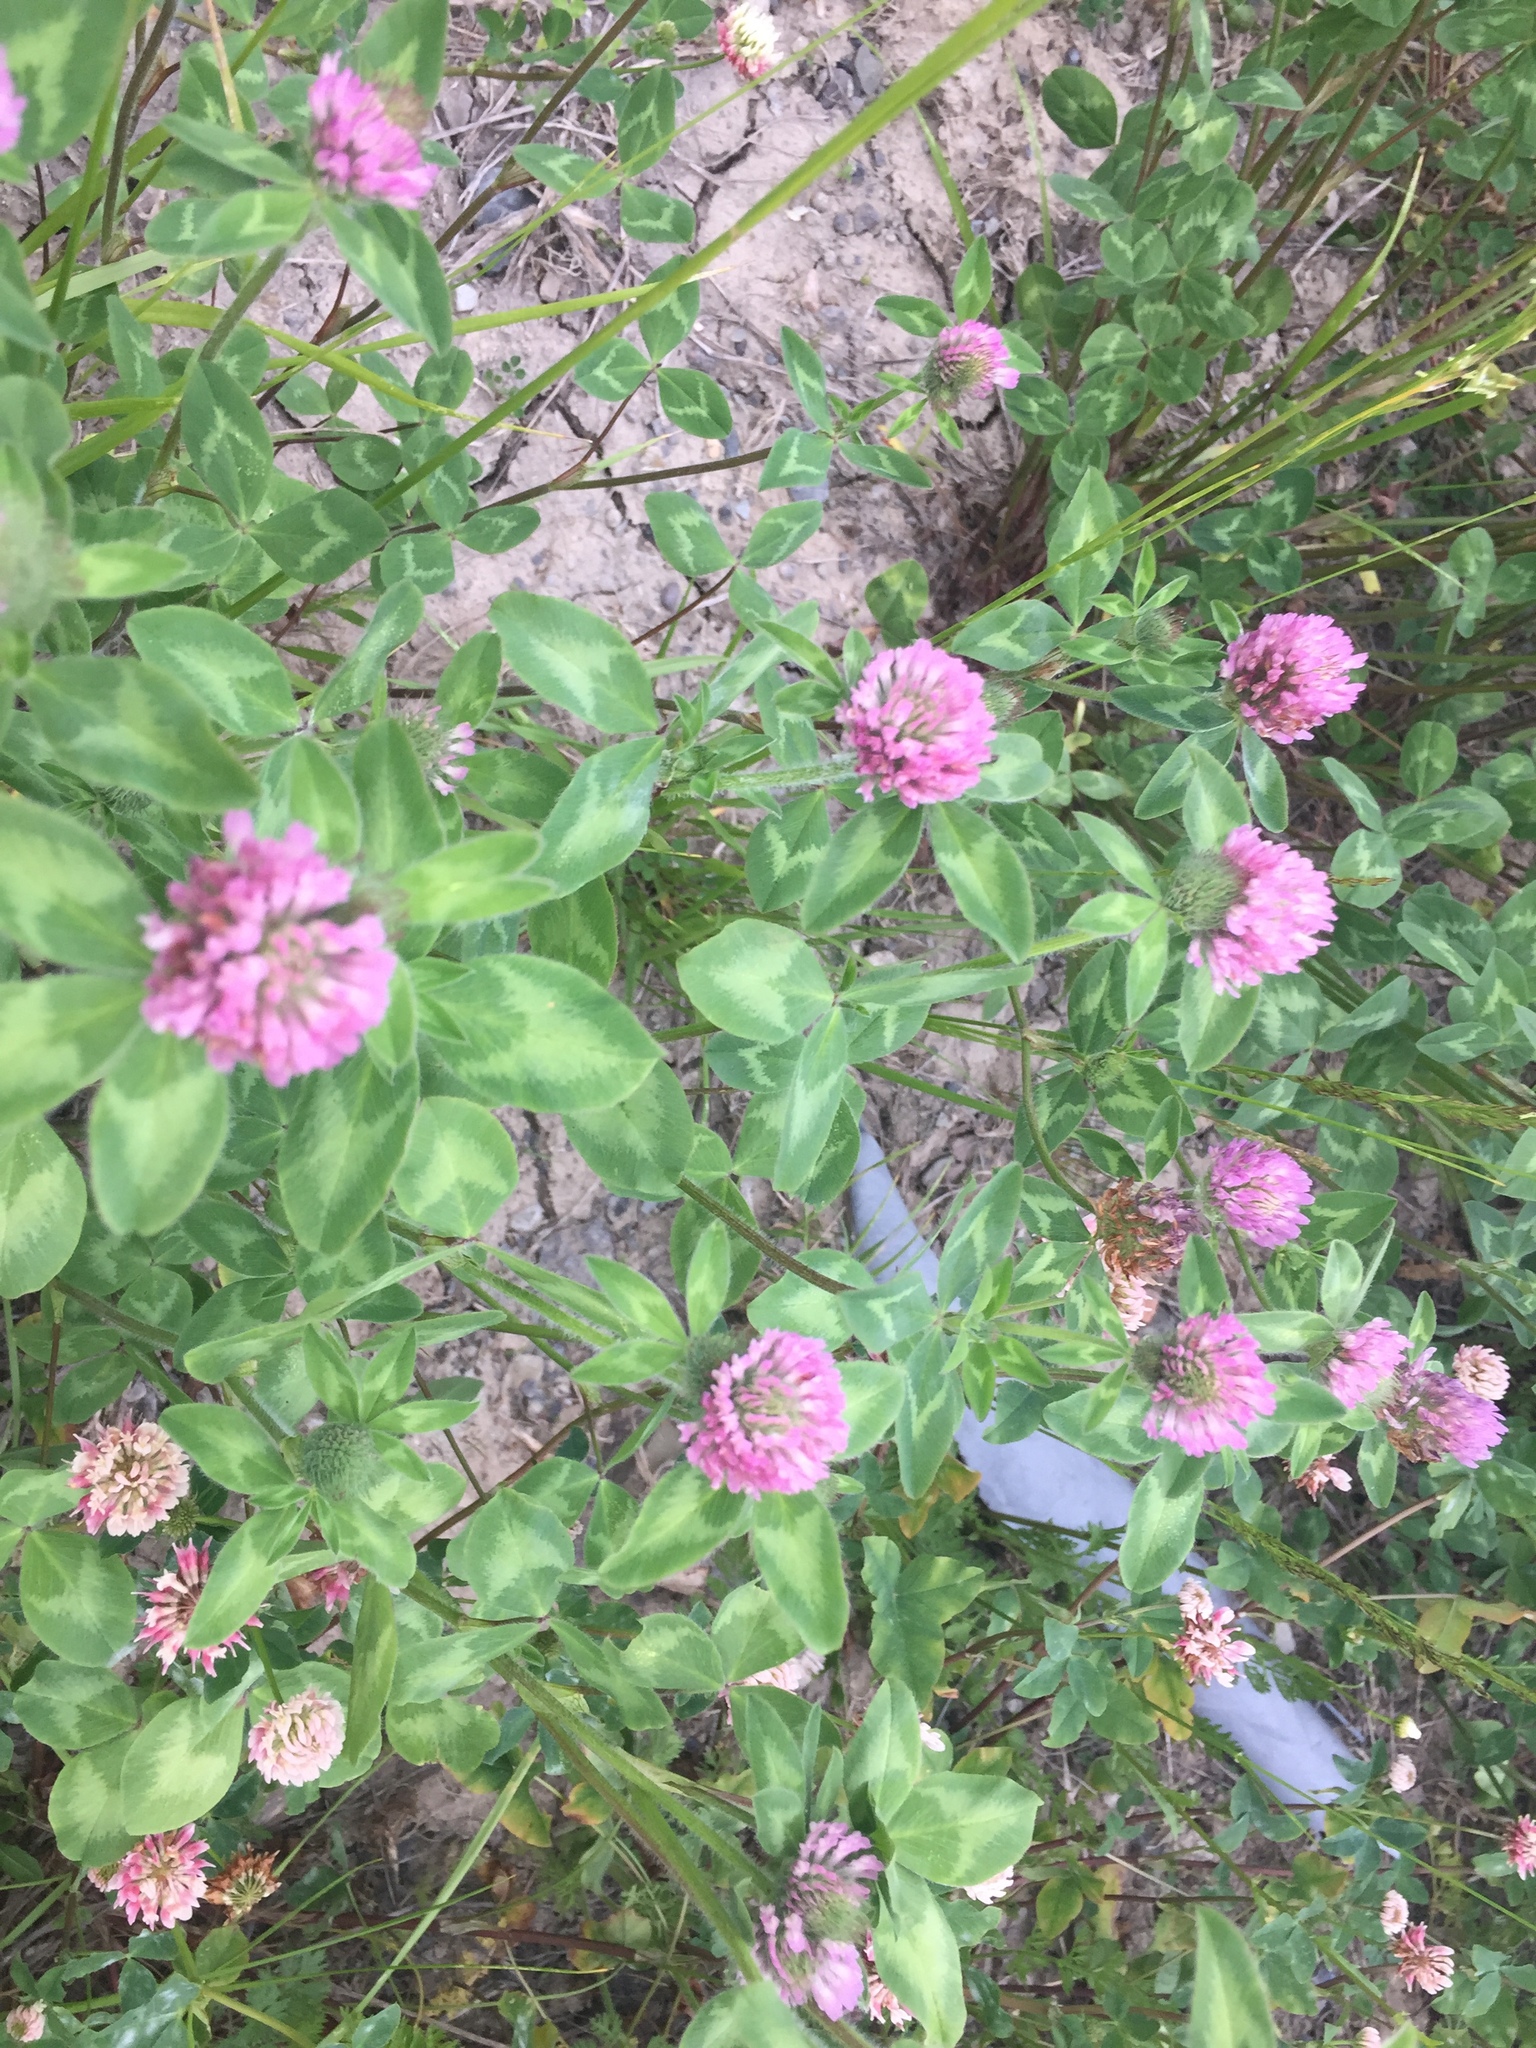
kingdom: Plantae
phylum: Tracheophyta
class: Magnoliopsida
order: Fabales
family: Fabaceae
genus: Trifolium
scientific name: Trifolium pratense
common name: Red clover
